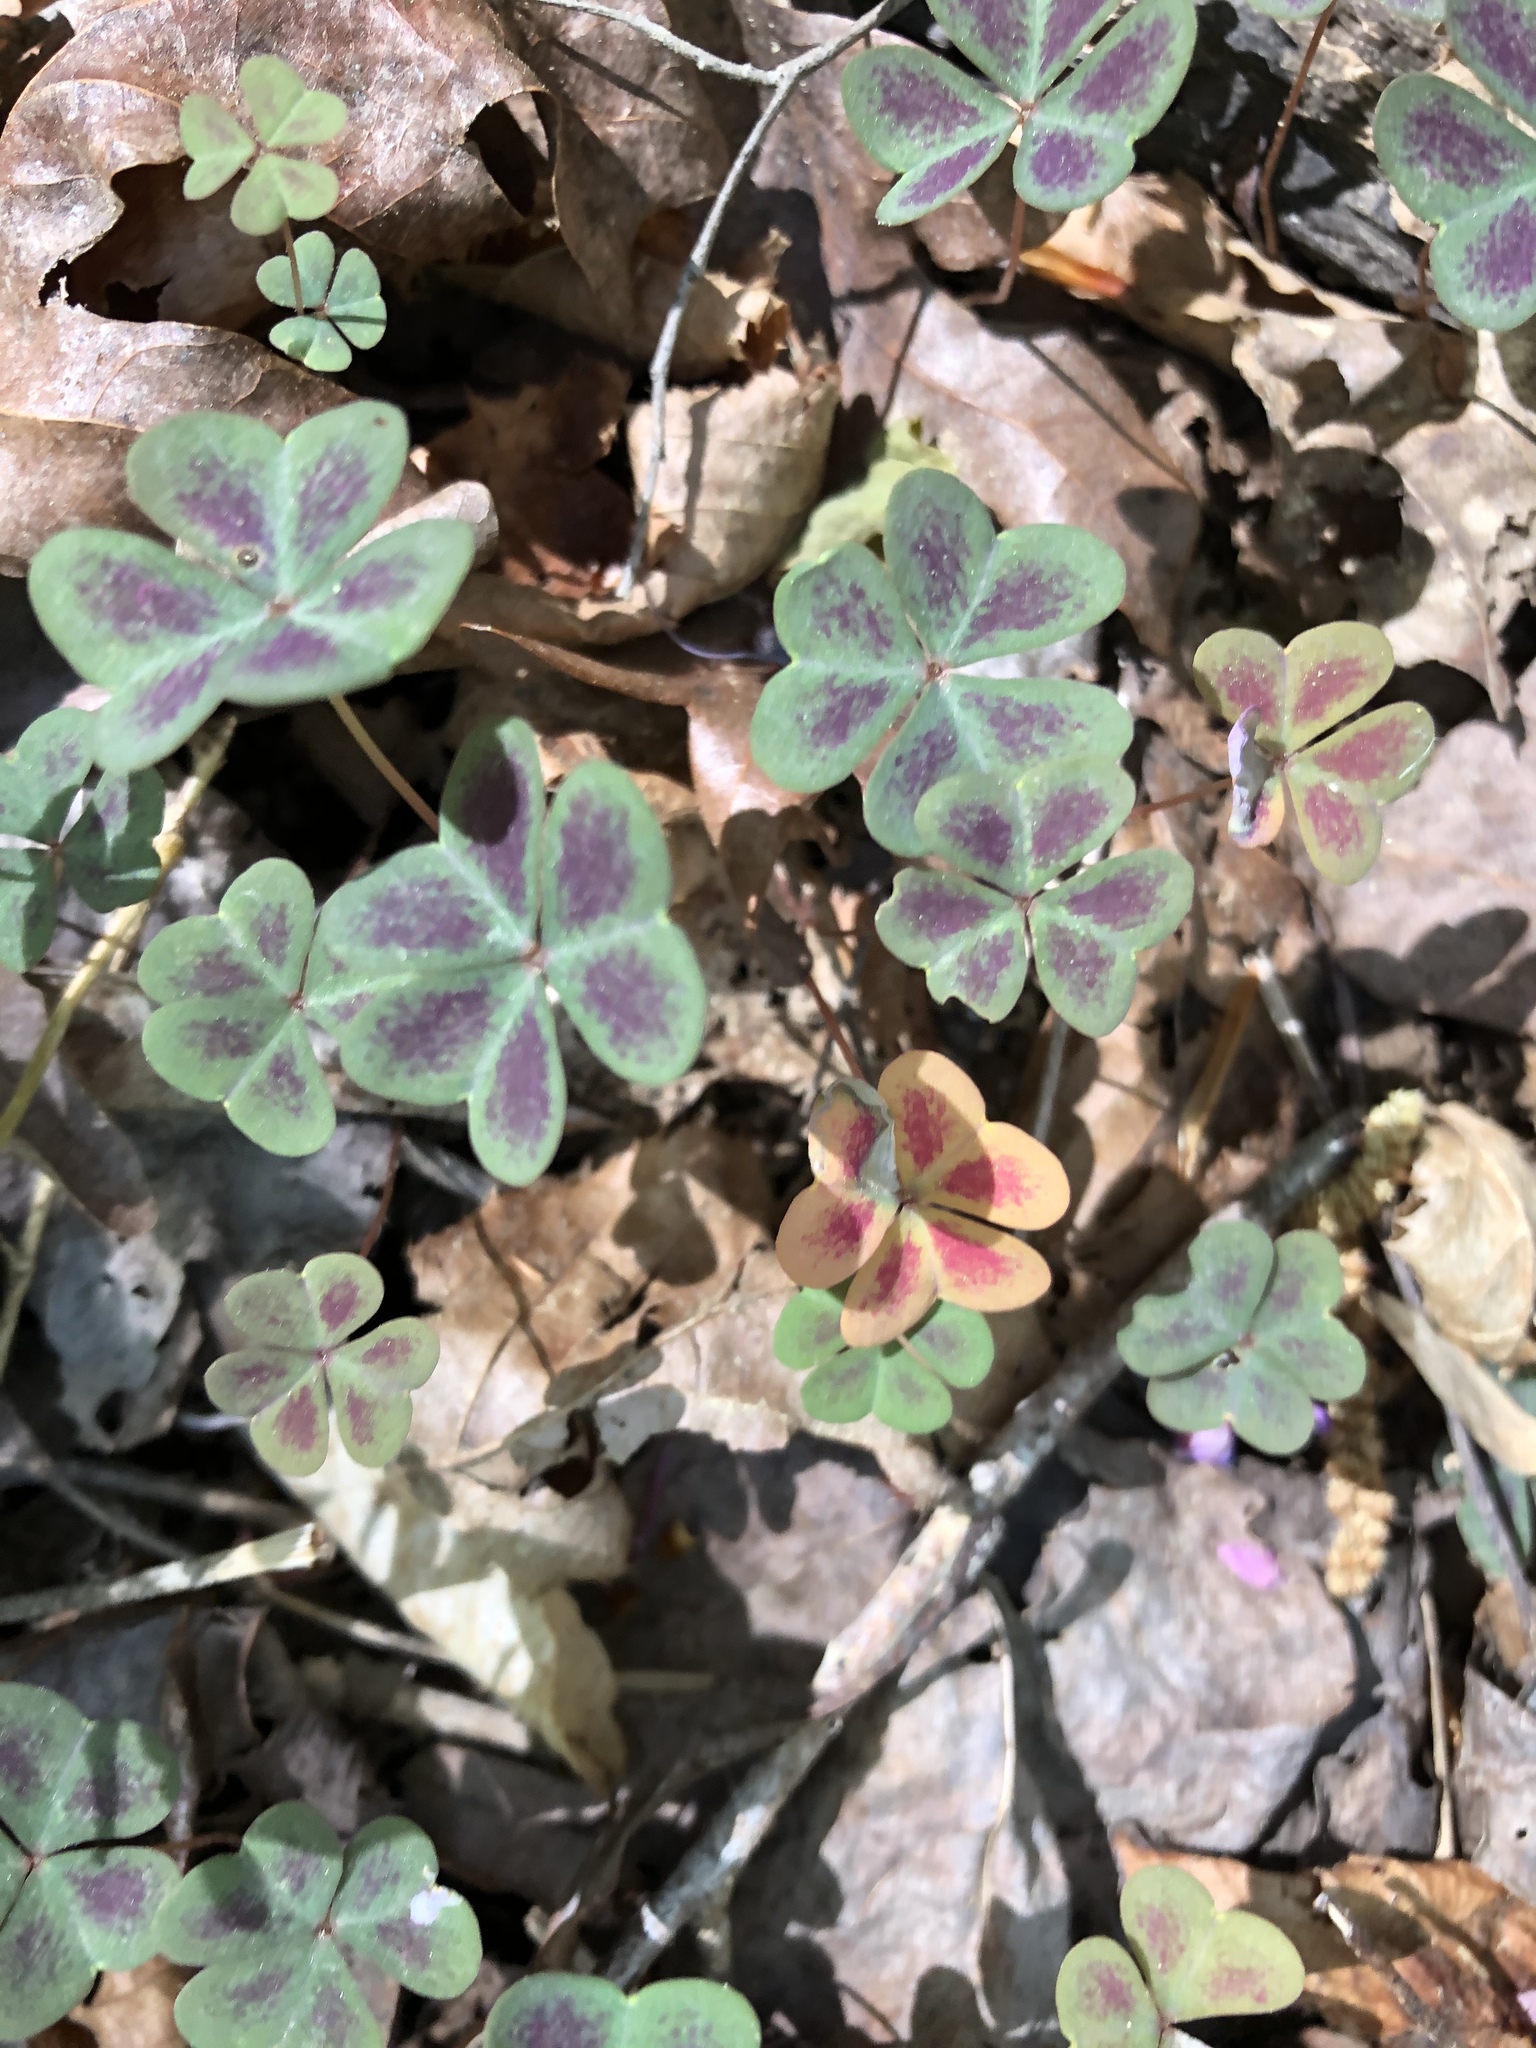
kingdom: Plantae
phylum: Tracheophyta
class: Magnoliopsida
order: Oxalidales
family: Oxalidaceae
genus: Oxalis
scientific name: Oxalis violacea
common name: Violet wood-sorrel
